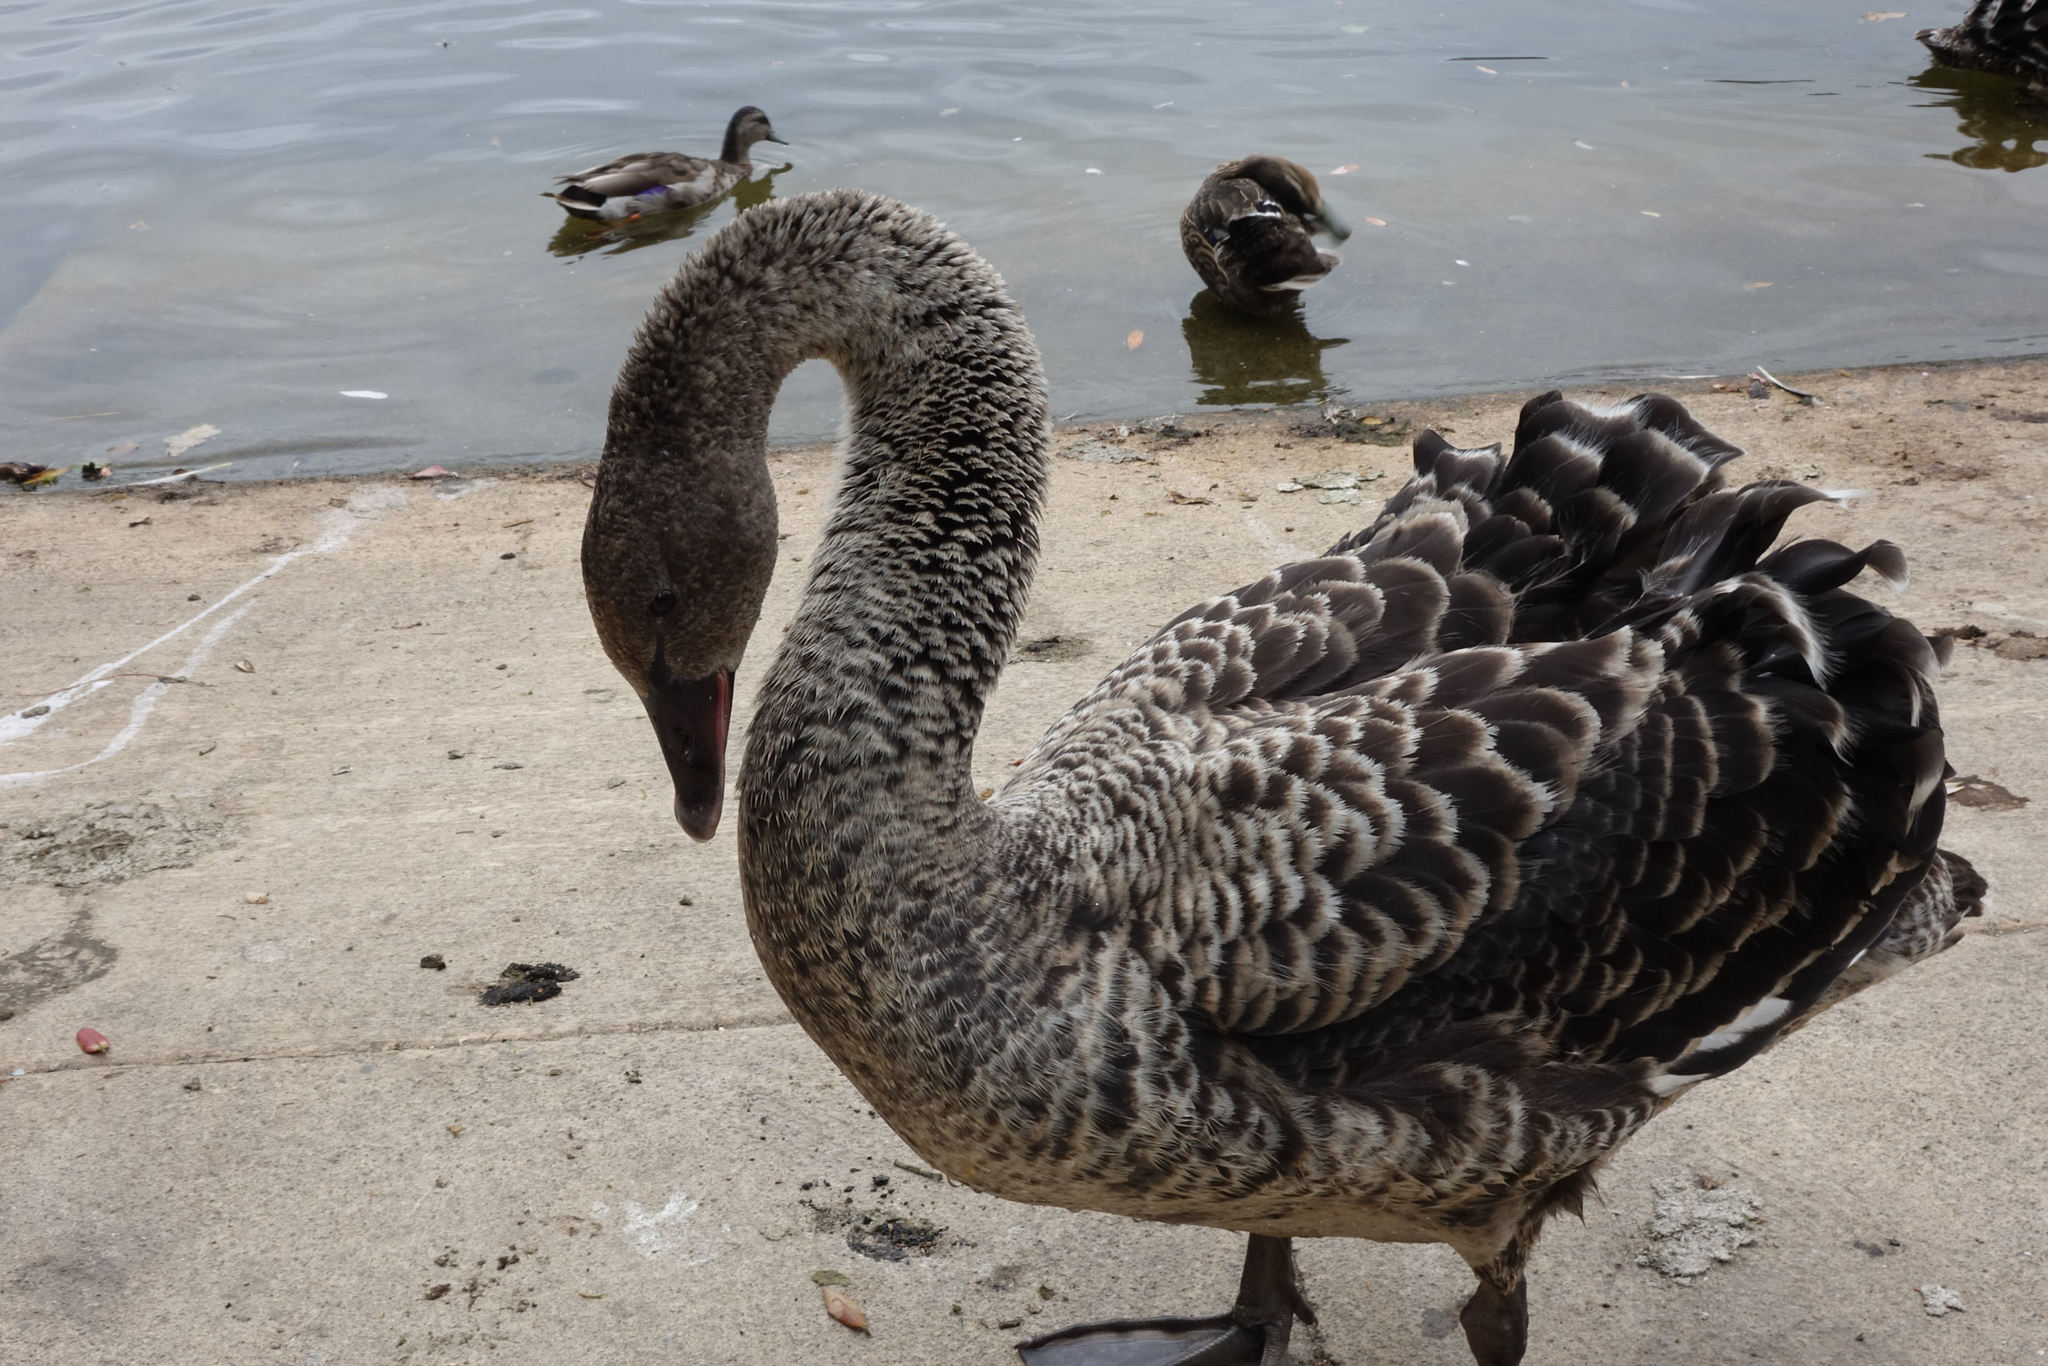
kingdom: Animalia
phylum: Chordata
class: Aves
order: Anseriformes
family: Anatidae
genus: Cygnus
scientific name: Cygnus atratus
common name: Black swan
